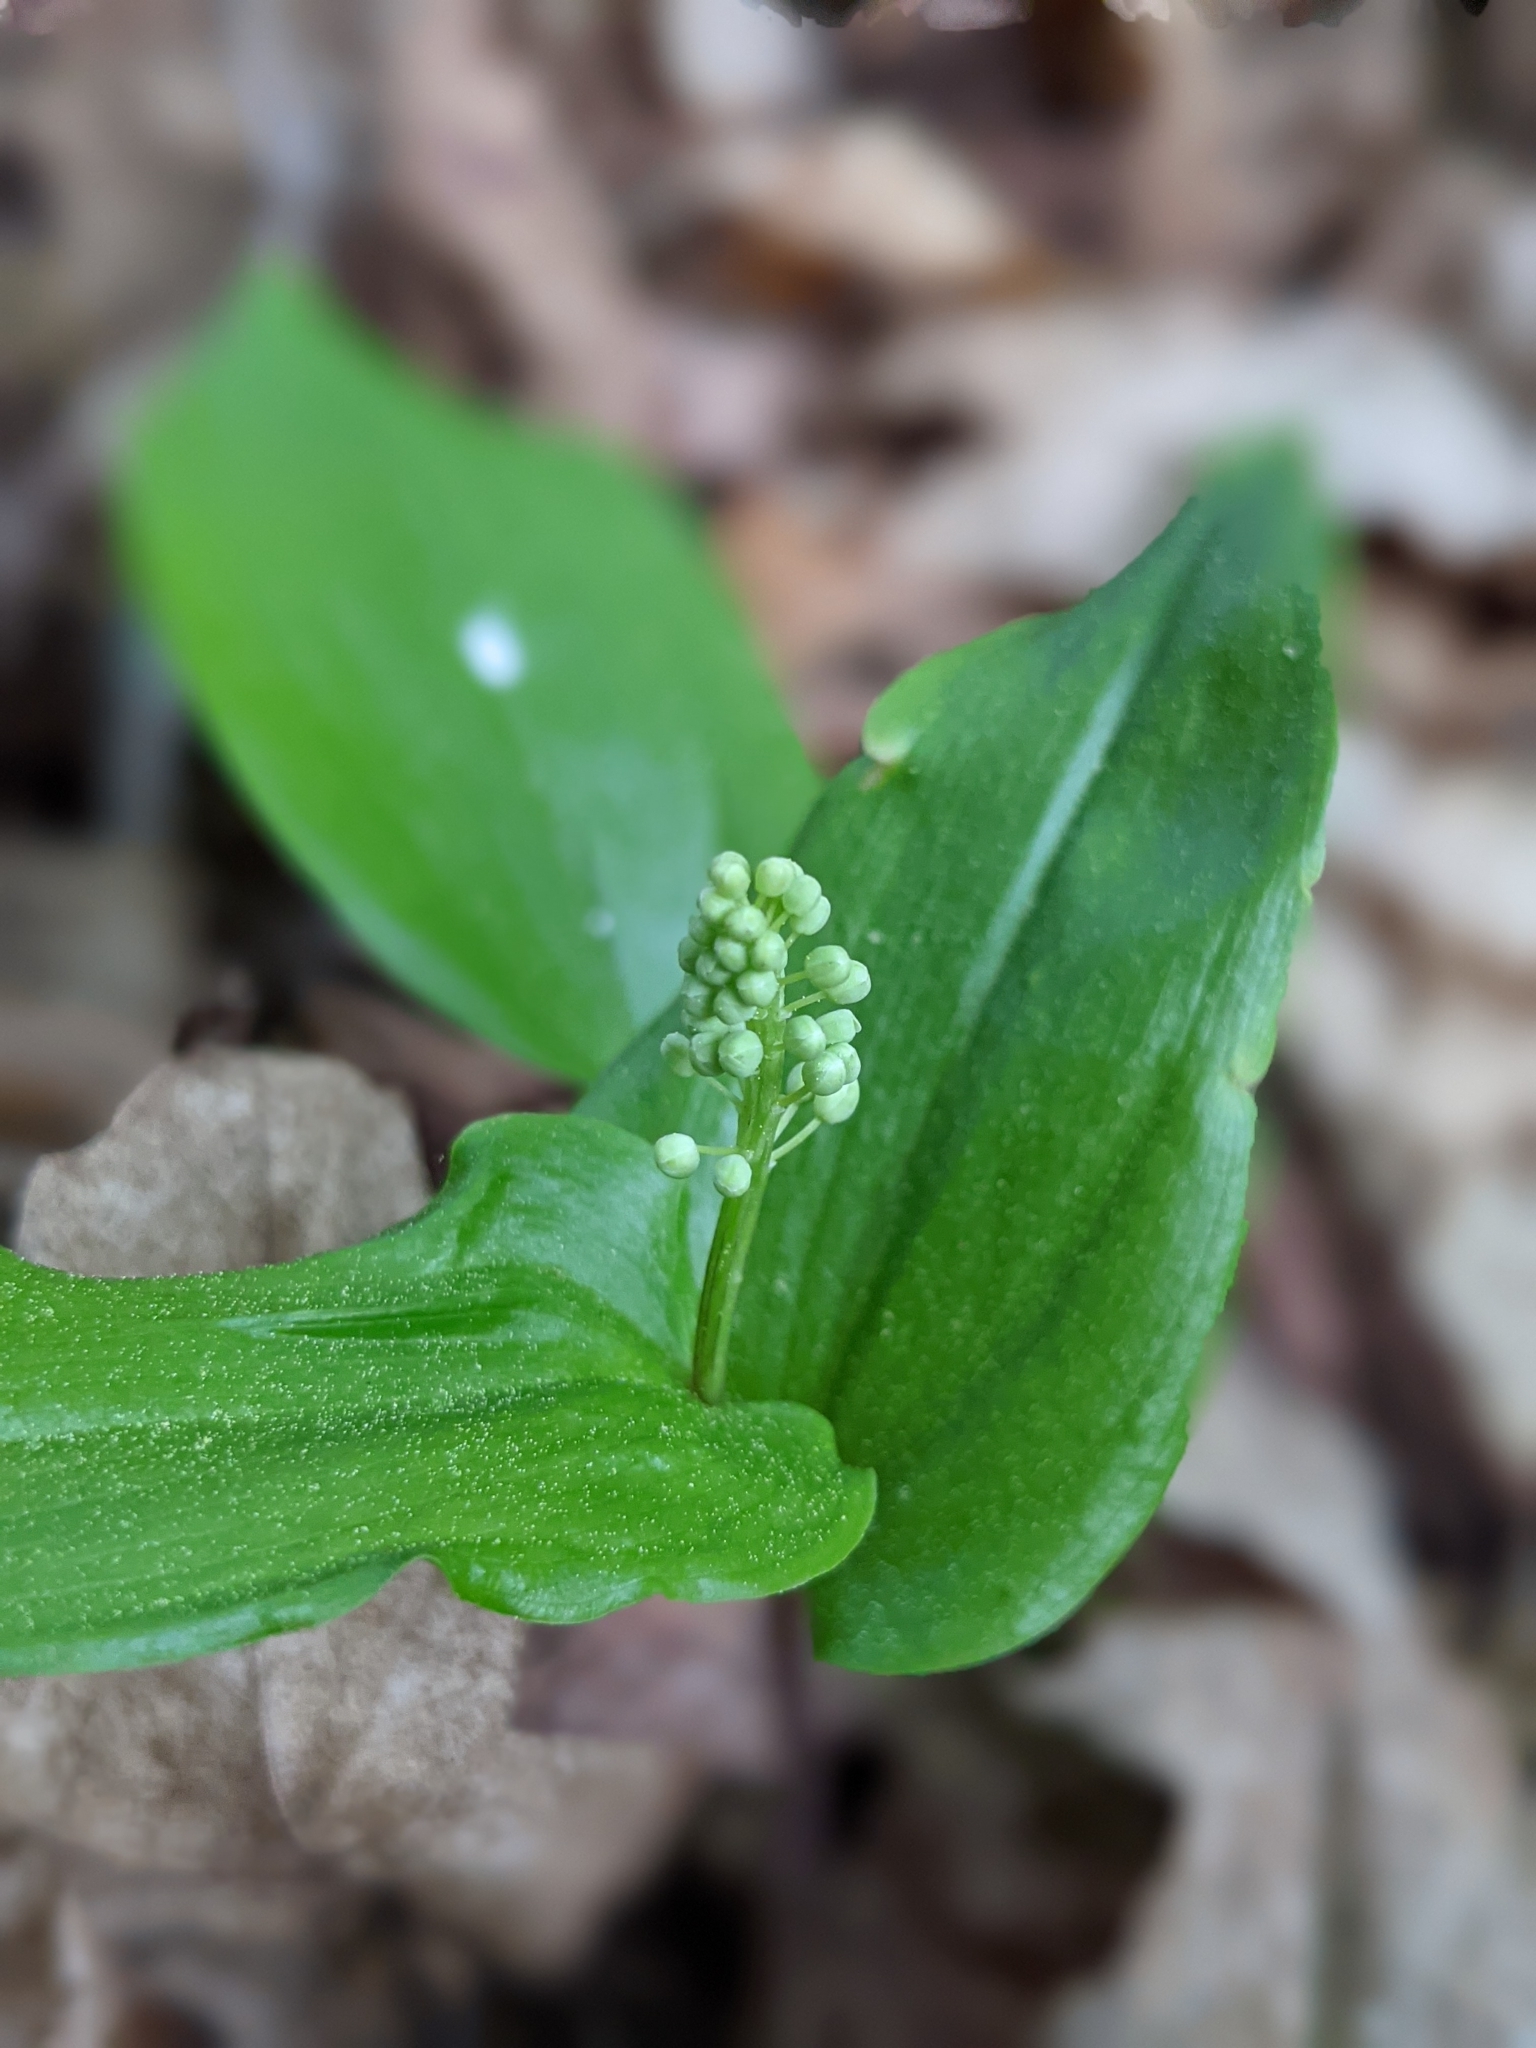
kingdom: Plantae
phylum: Tracheophyta
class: Liliopsida
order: Asparagales
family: Asparagaceae
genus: Maianthemum
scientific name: Maianthemum canadense
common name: False lily-of-the-valley
